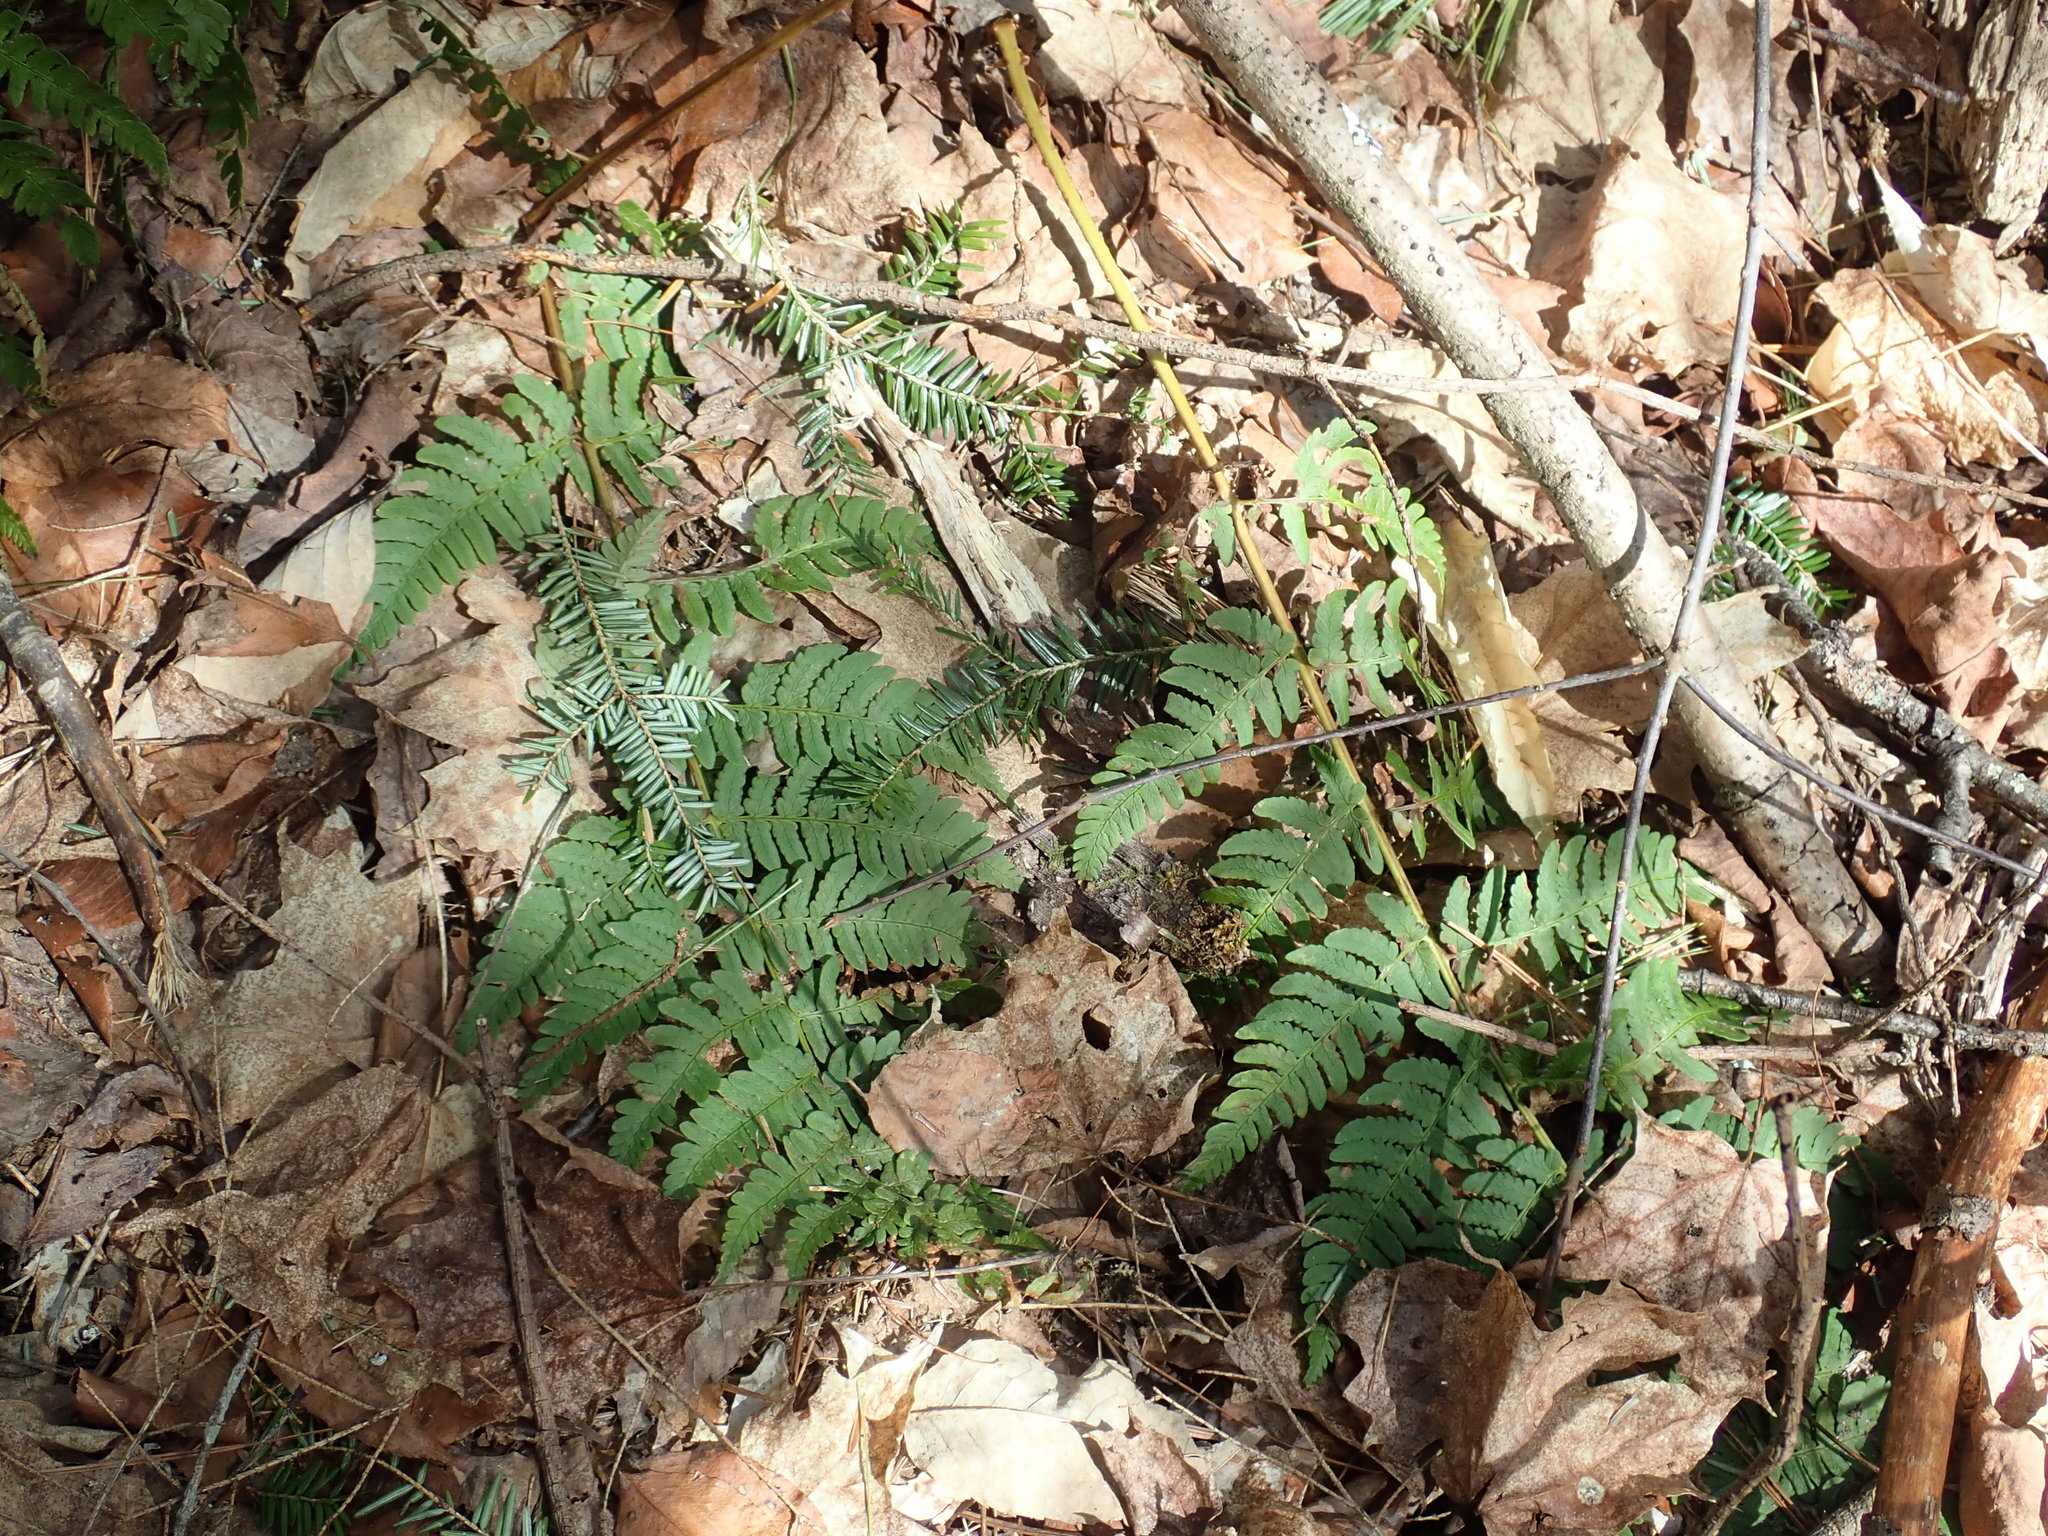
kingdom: Plantae
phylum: Tracheophyta
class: Polypodiopsida
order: Polypodiales
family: Dryopteridaceae
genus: Dryopteris
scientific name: Dryopteris marginalis
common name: Marginal wood fern
